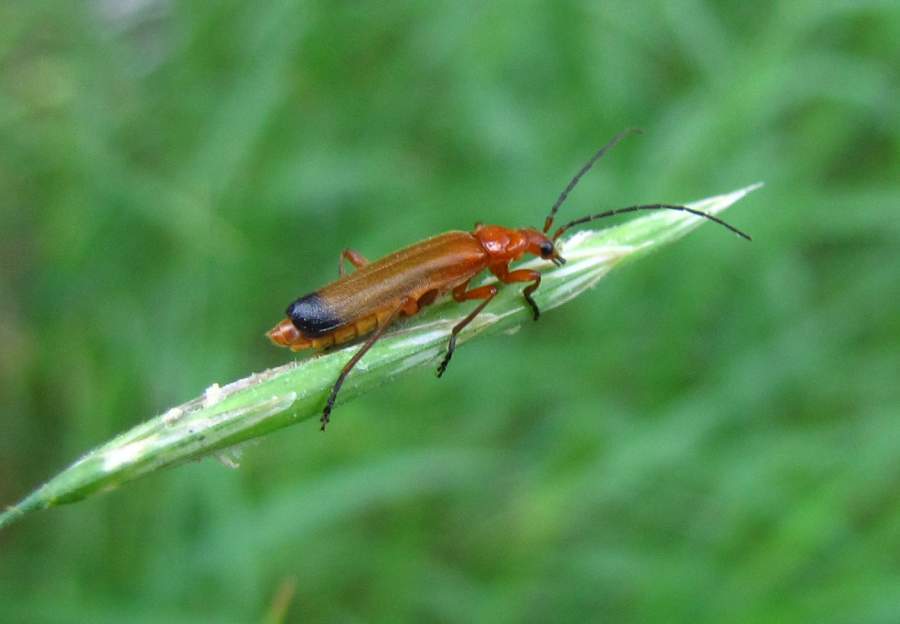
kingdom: Animalia
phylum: Arthropoda
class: Insecta
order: Coleoptera
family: Cantharidae
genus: Rhagonycha
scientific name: Rhagonycha fulva
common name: Common red soldier beetle
